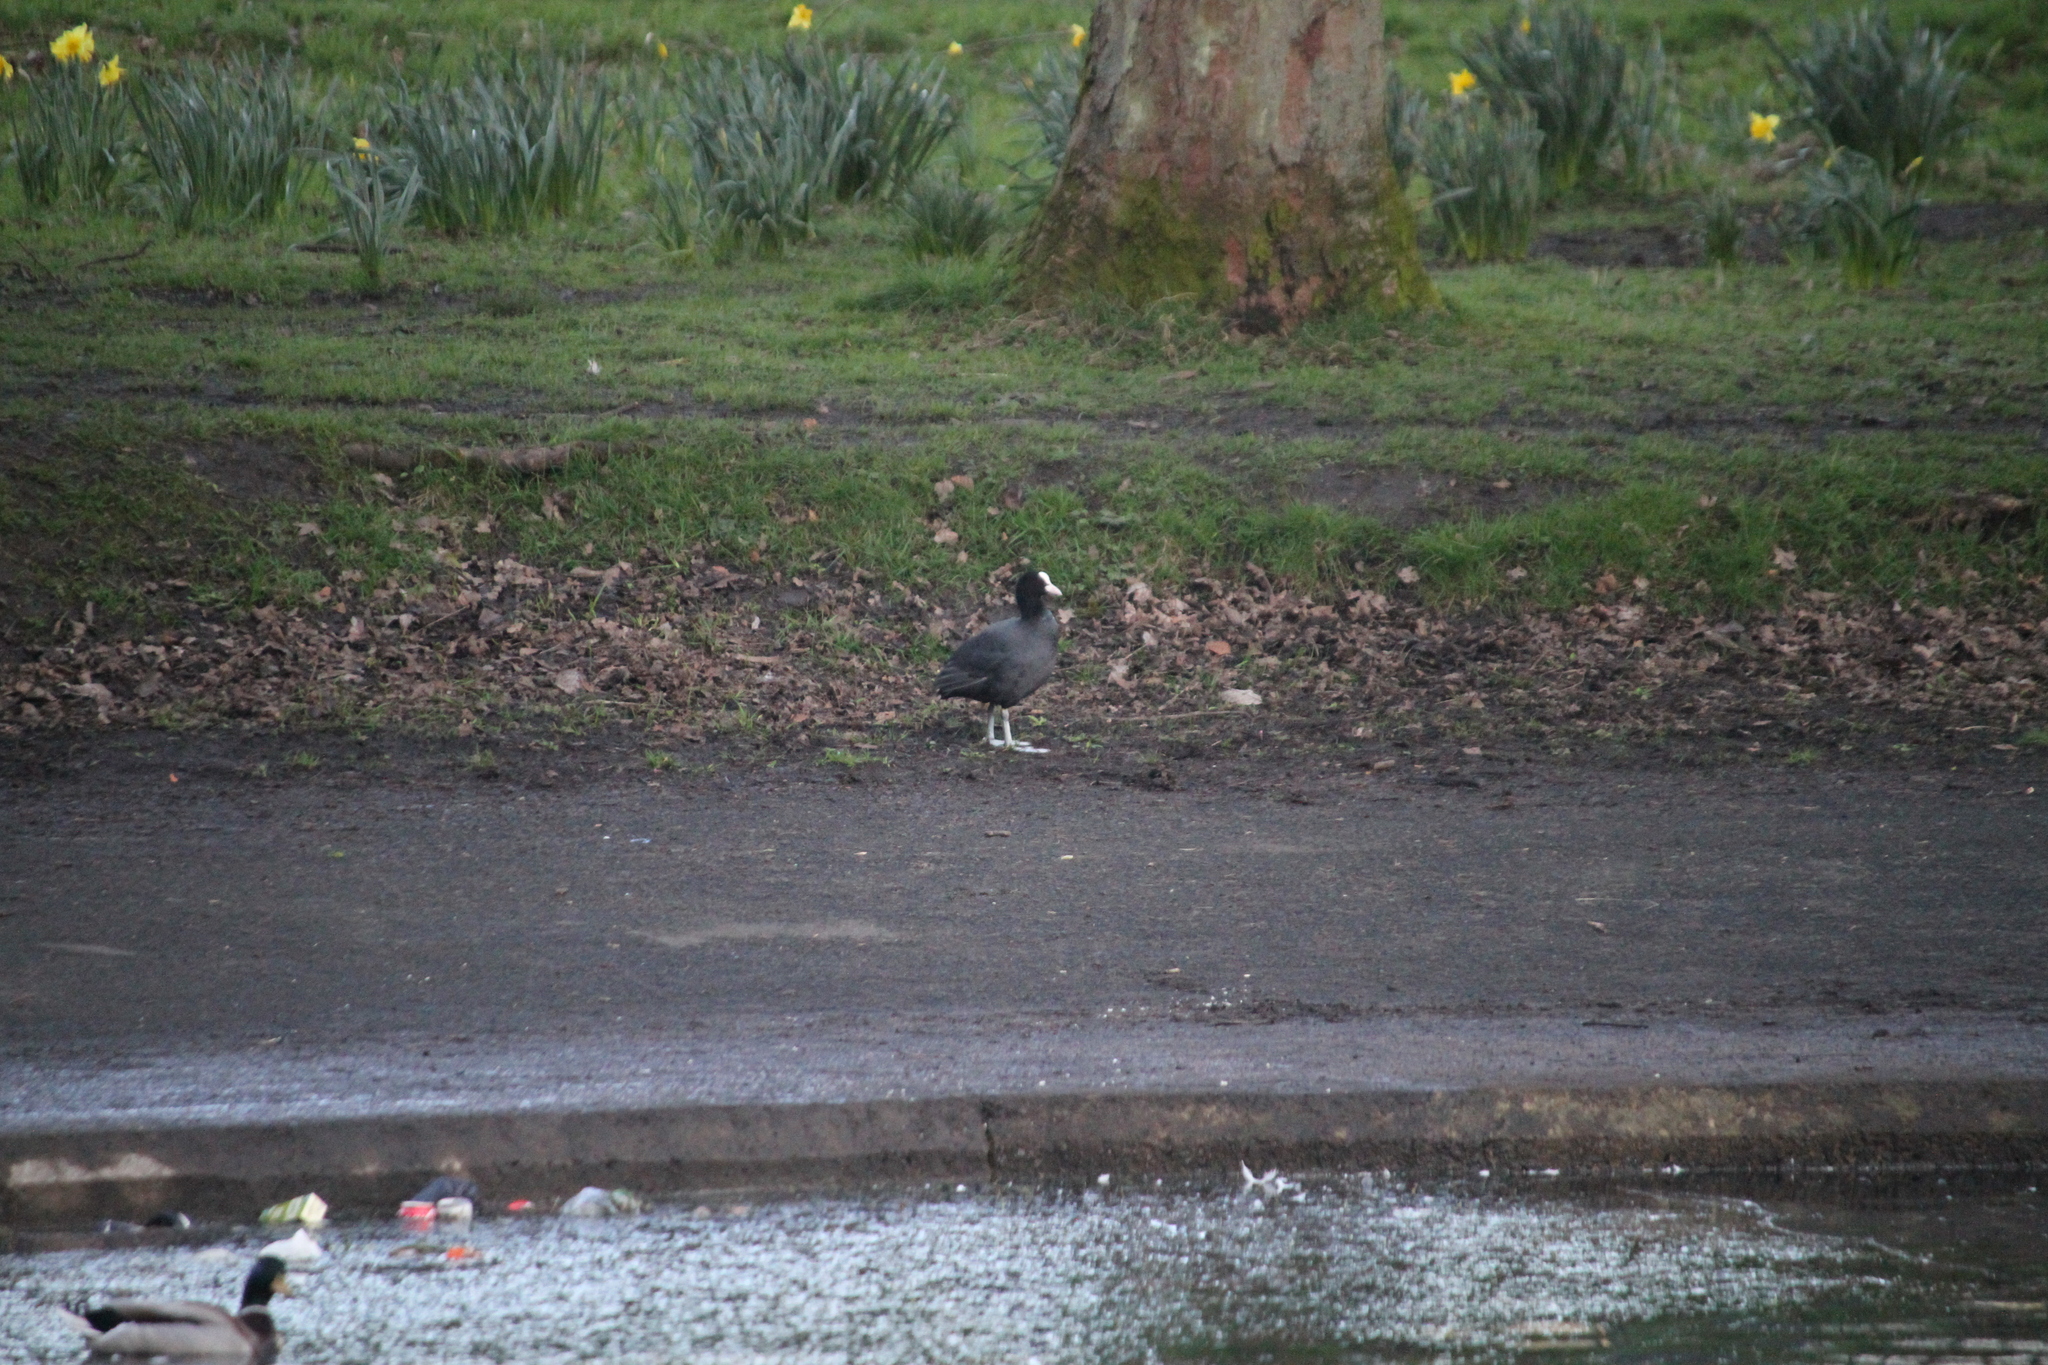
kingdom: Animalia
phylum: Chordata
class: Aves
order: Gruiformes
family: Rallidae
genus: Fulica
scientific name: Fulica atra
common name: Eurasian coot
